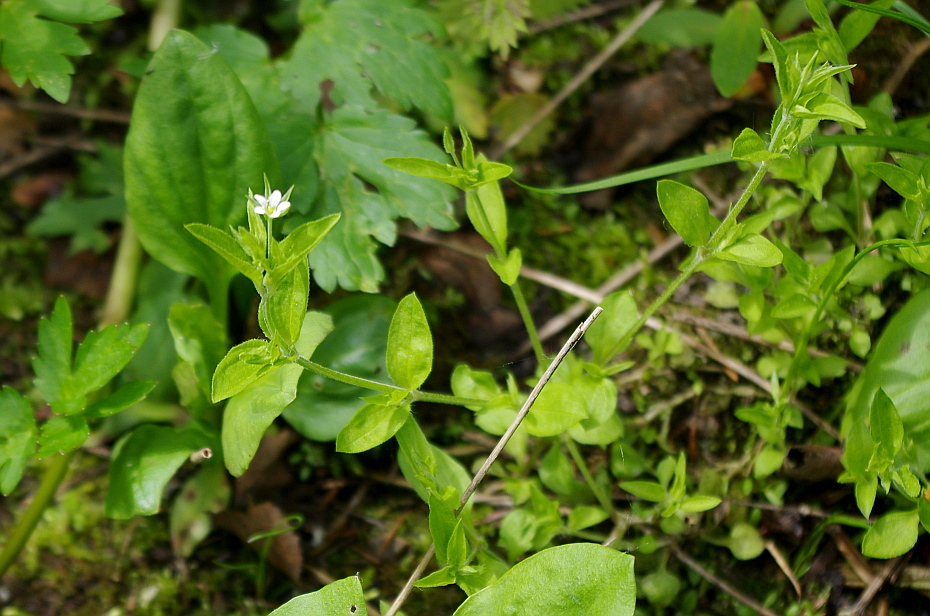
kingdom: Plantae
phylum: Tracheophyta
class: Magnoliopsida
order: Caryophyllales
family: Caryophyllaceae
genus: Moehringia
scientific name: Moehringia trinervia
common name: Three-nerved sandwort
